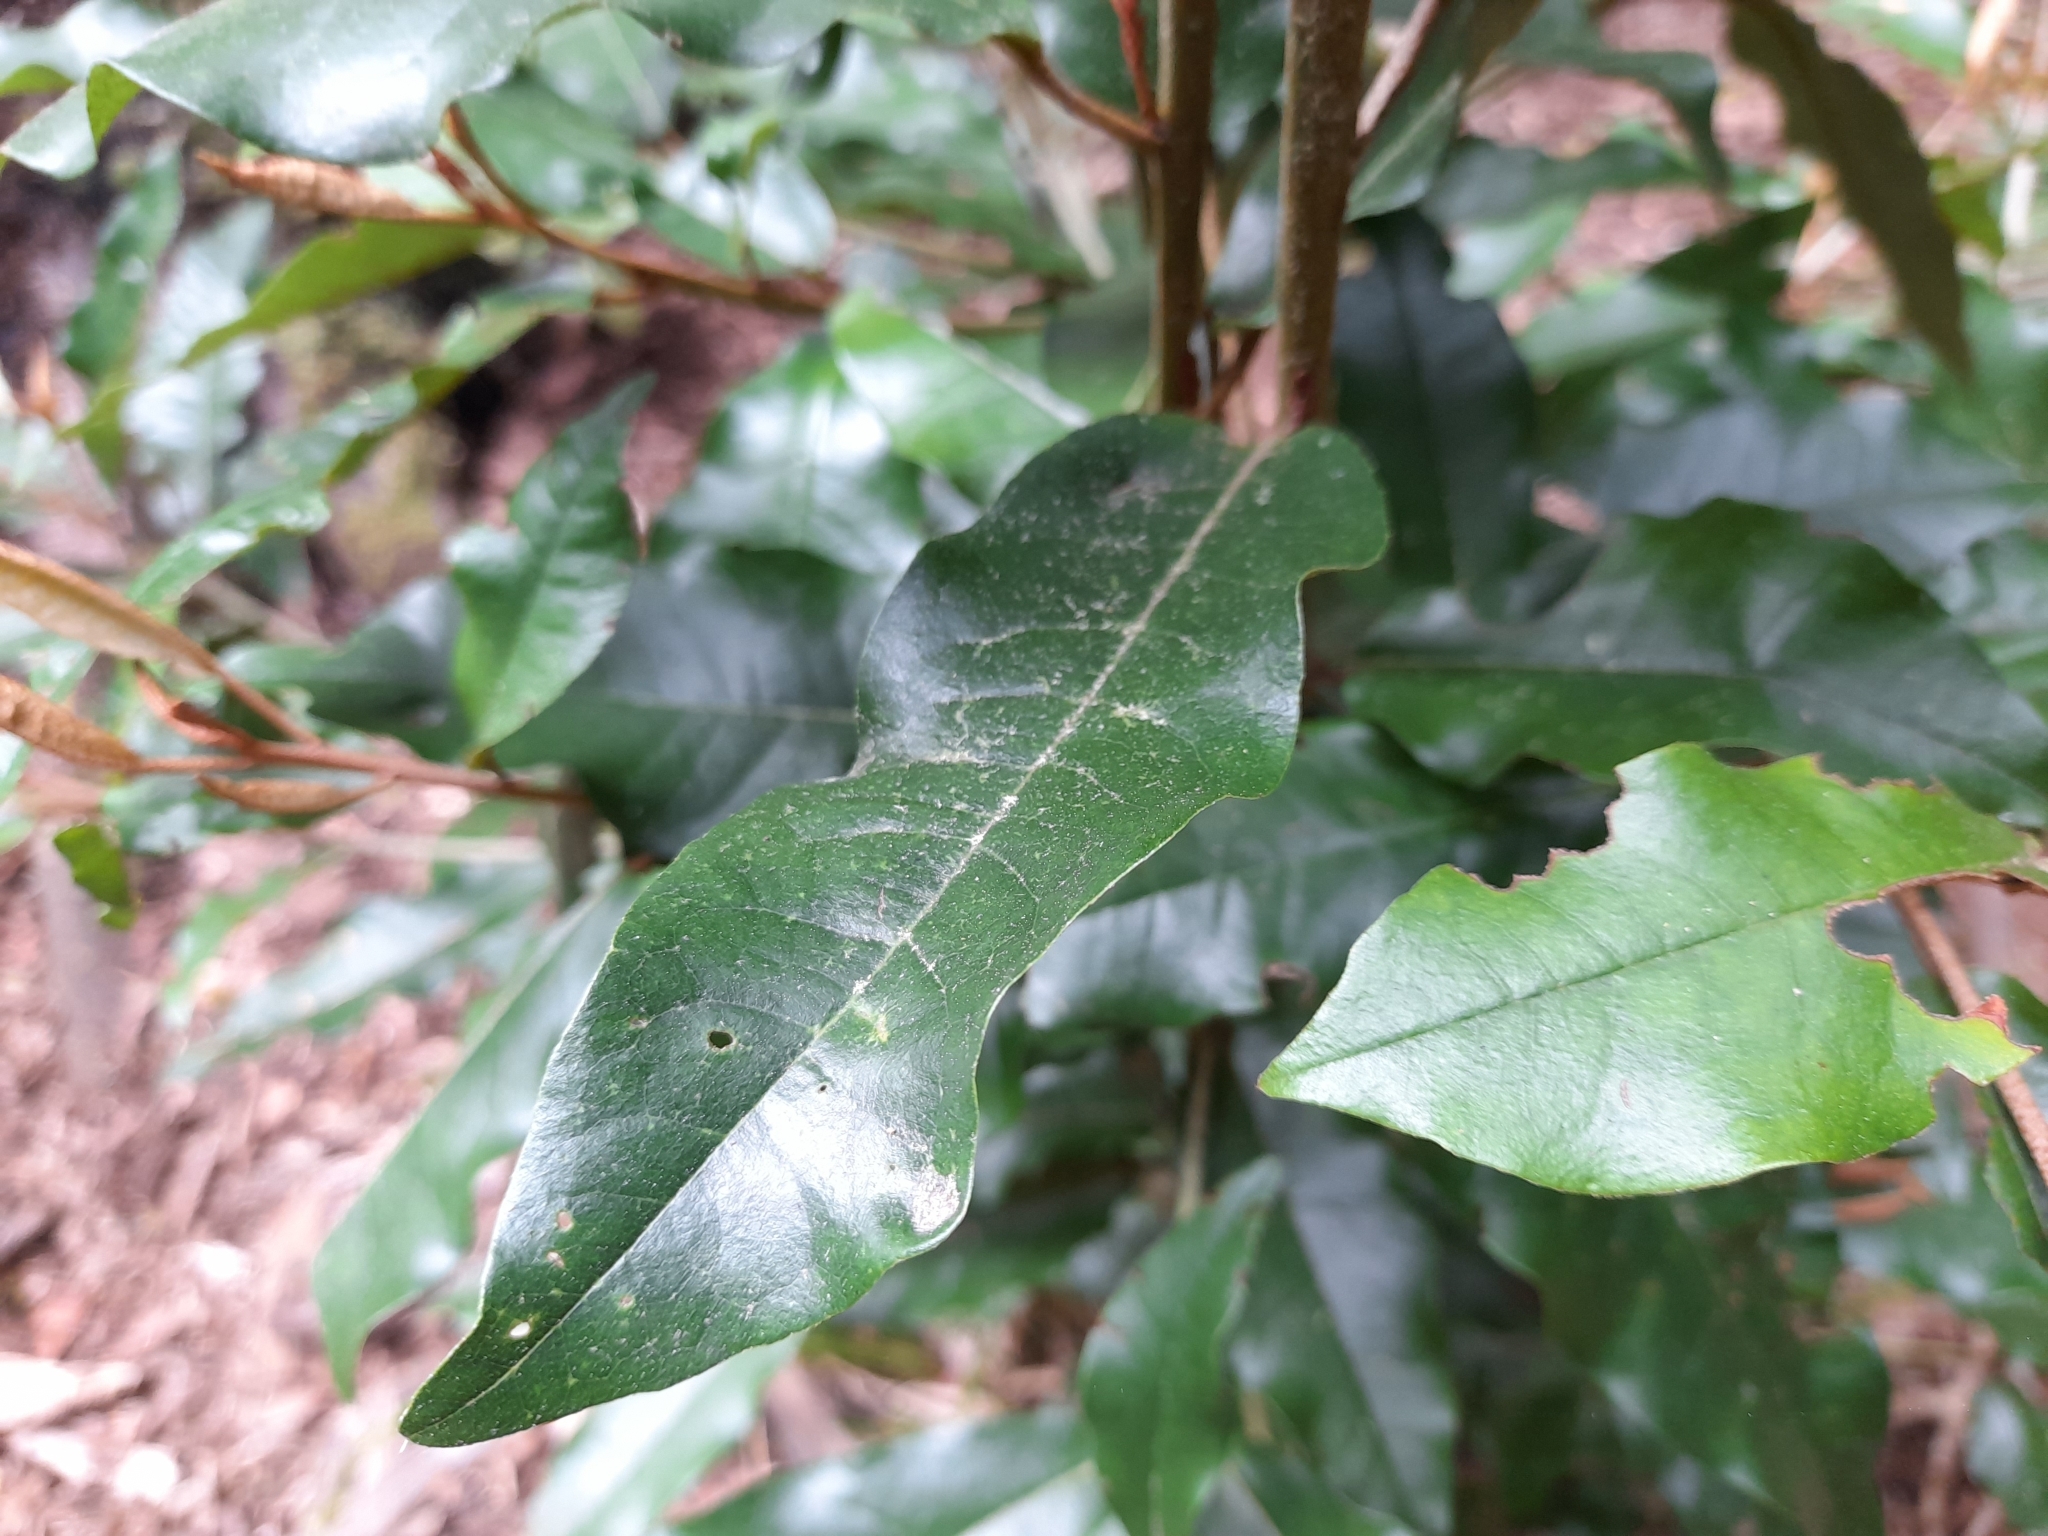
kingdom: Plantae
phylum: Tracheophyta
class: Magnoliopsida
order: Berberidopsidales
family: Aextoxicaceae
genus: Aextoxicon
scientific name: Aextoxicon punctatum
